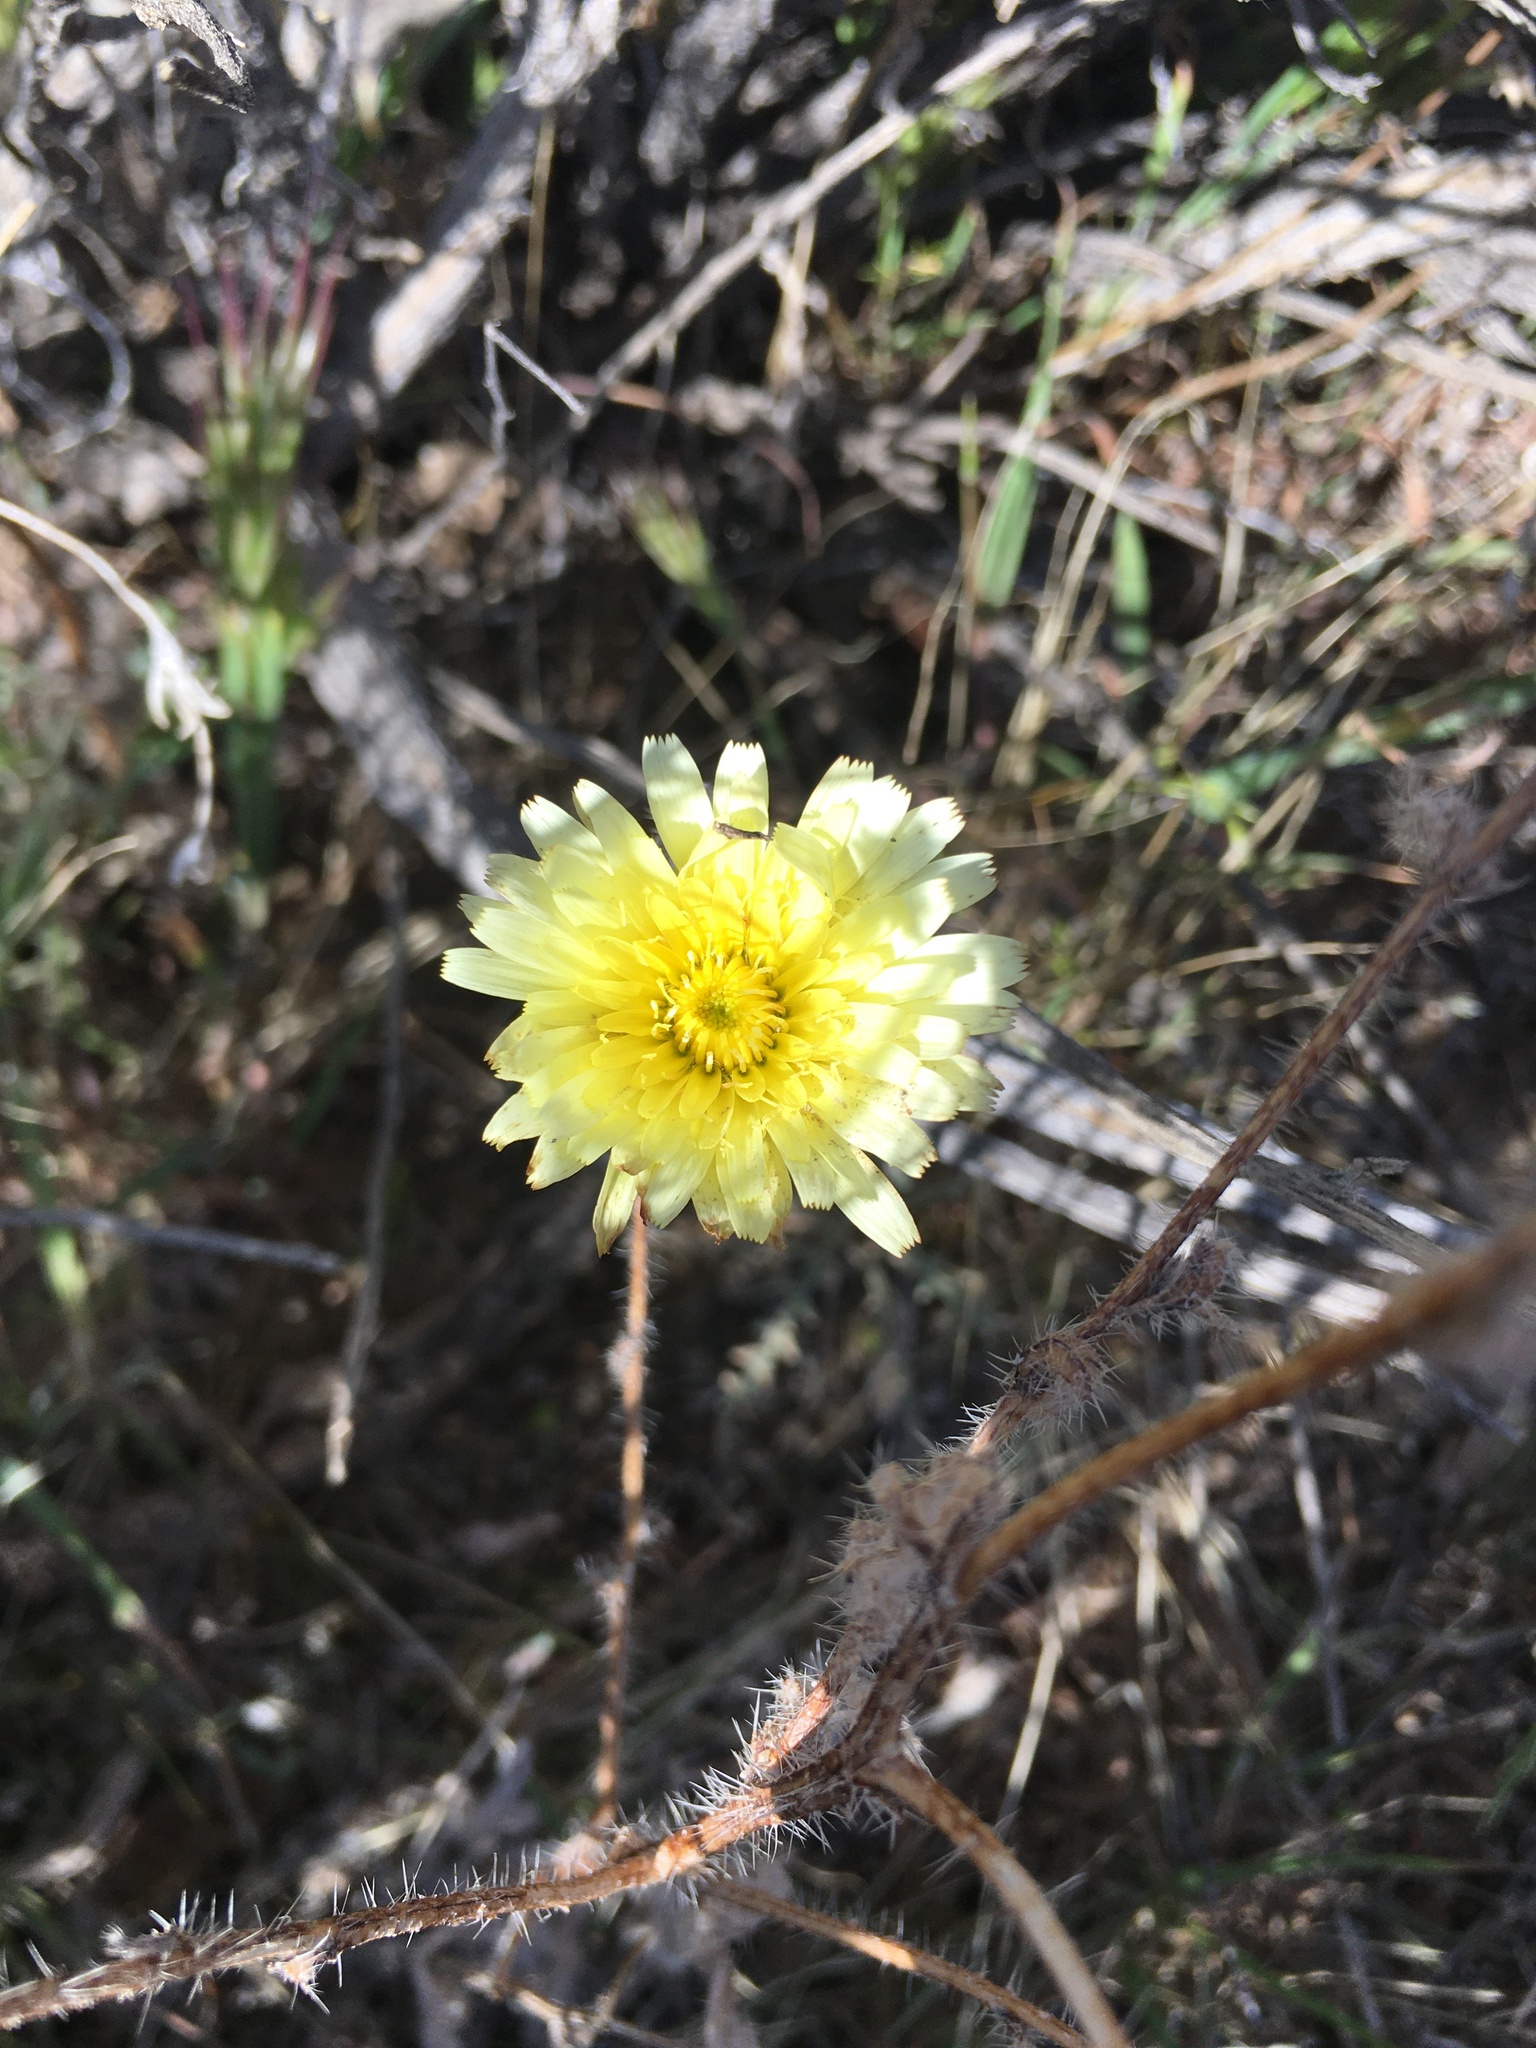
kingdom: Plantae
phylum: Tracheophyta
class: Magnoliopsida
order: Asterales
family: Asteraceae
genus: Malacothrix
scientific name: Malacothrix glabrata
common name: Smooth desert-dandelion
